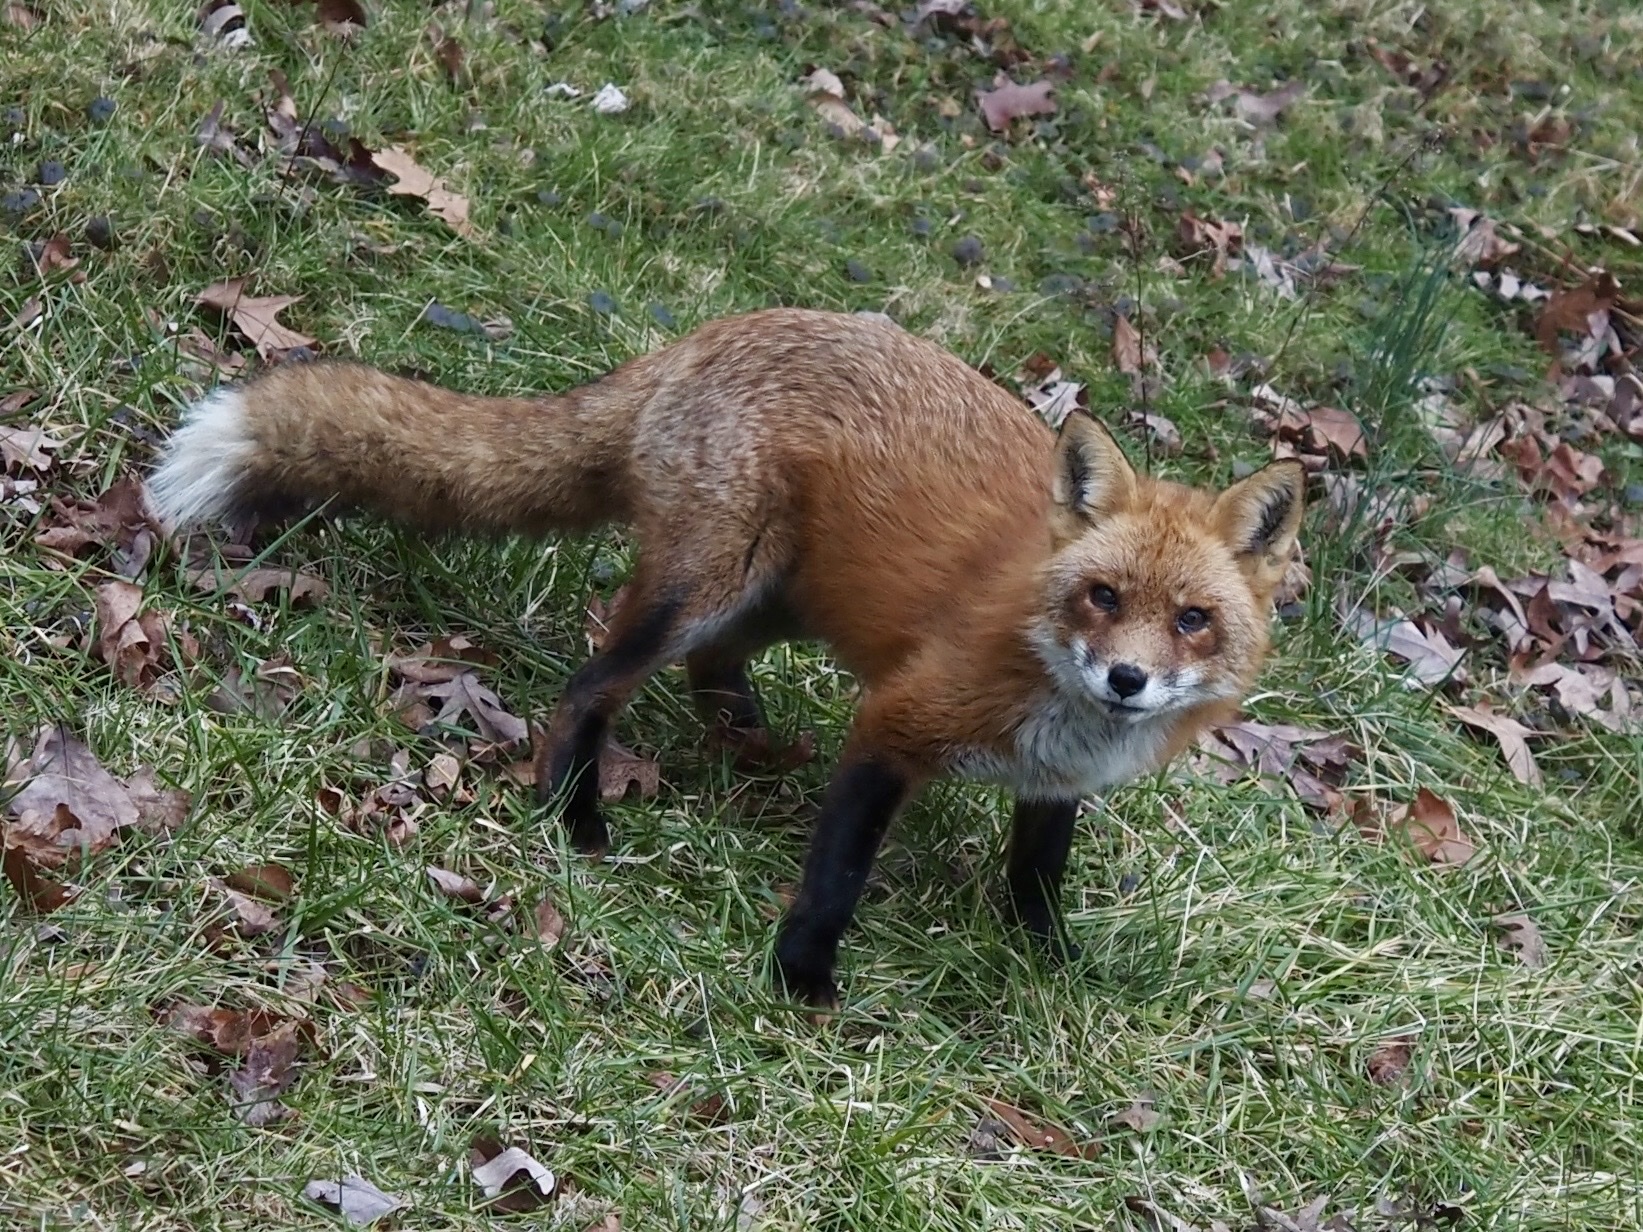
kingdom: Animalia
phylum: Chordata
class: Mammalia
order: Carnivora
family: Canidae
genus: Vulpes
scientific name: Vulpes vulpes
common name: Red fox
